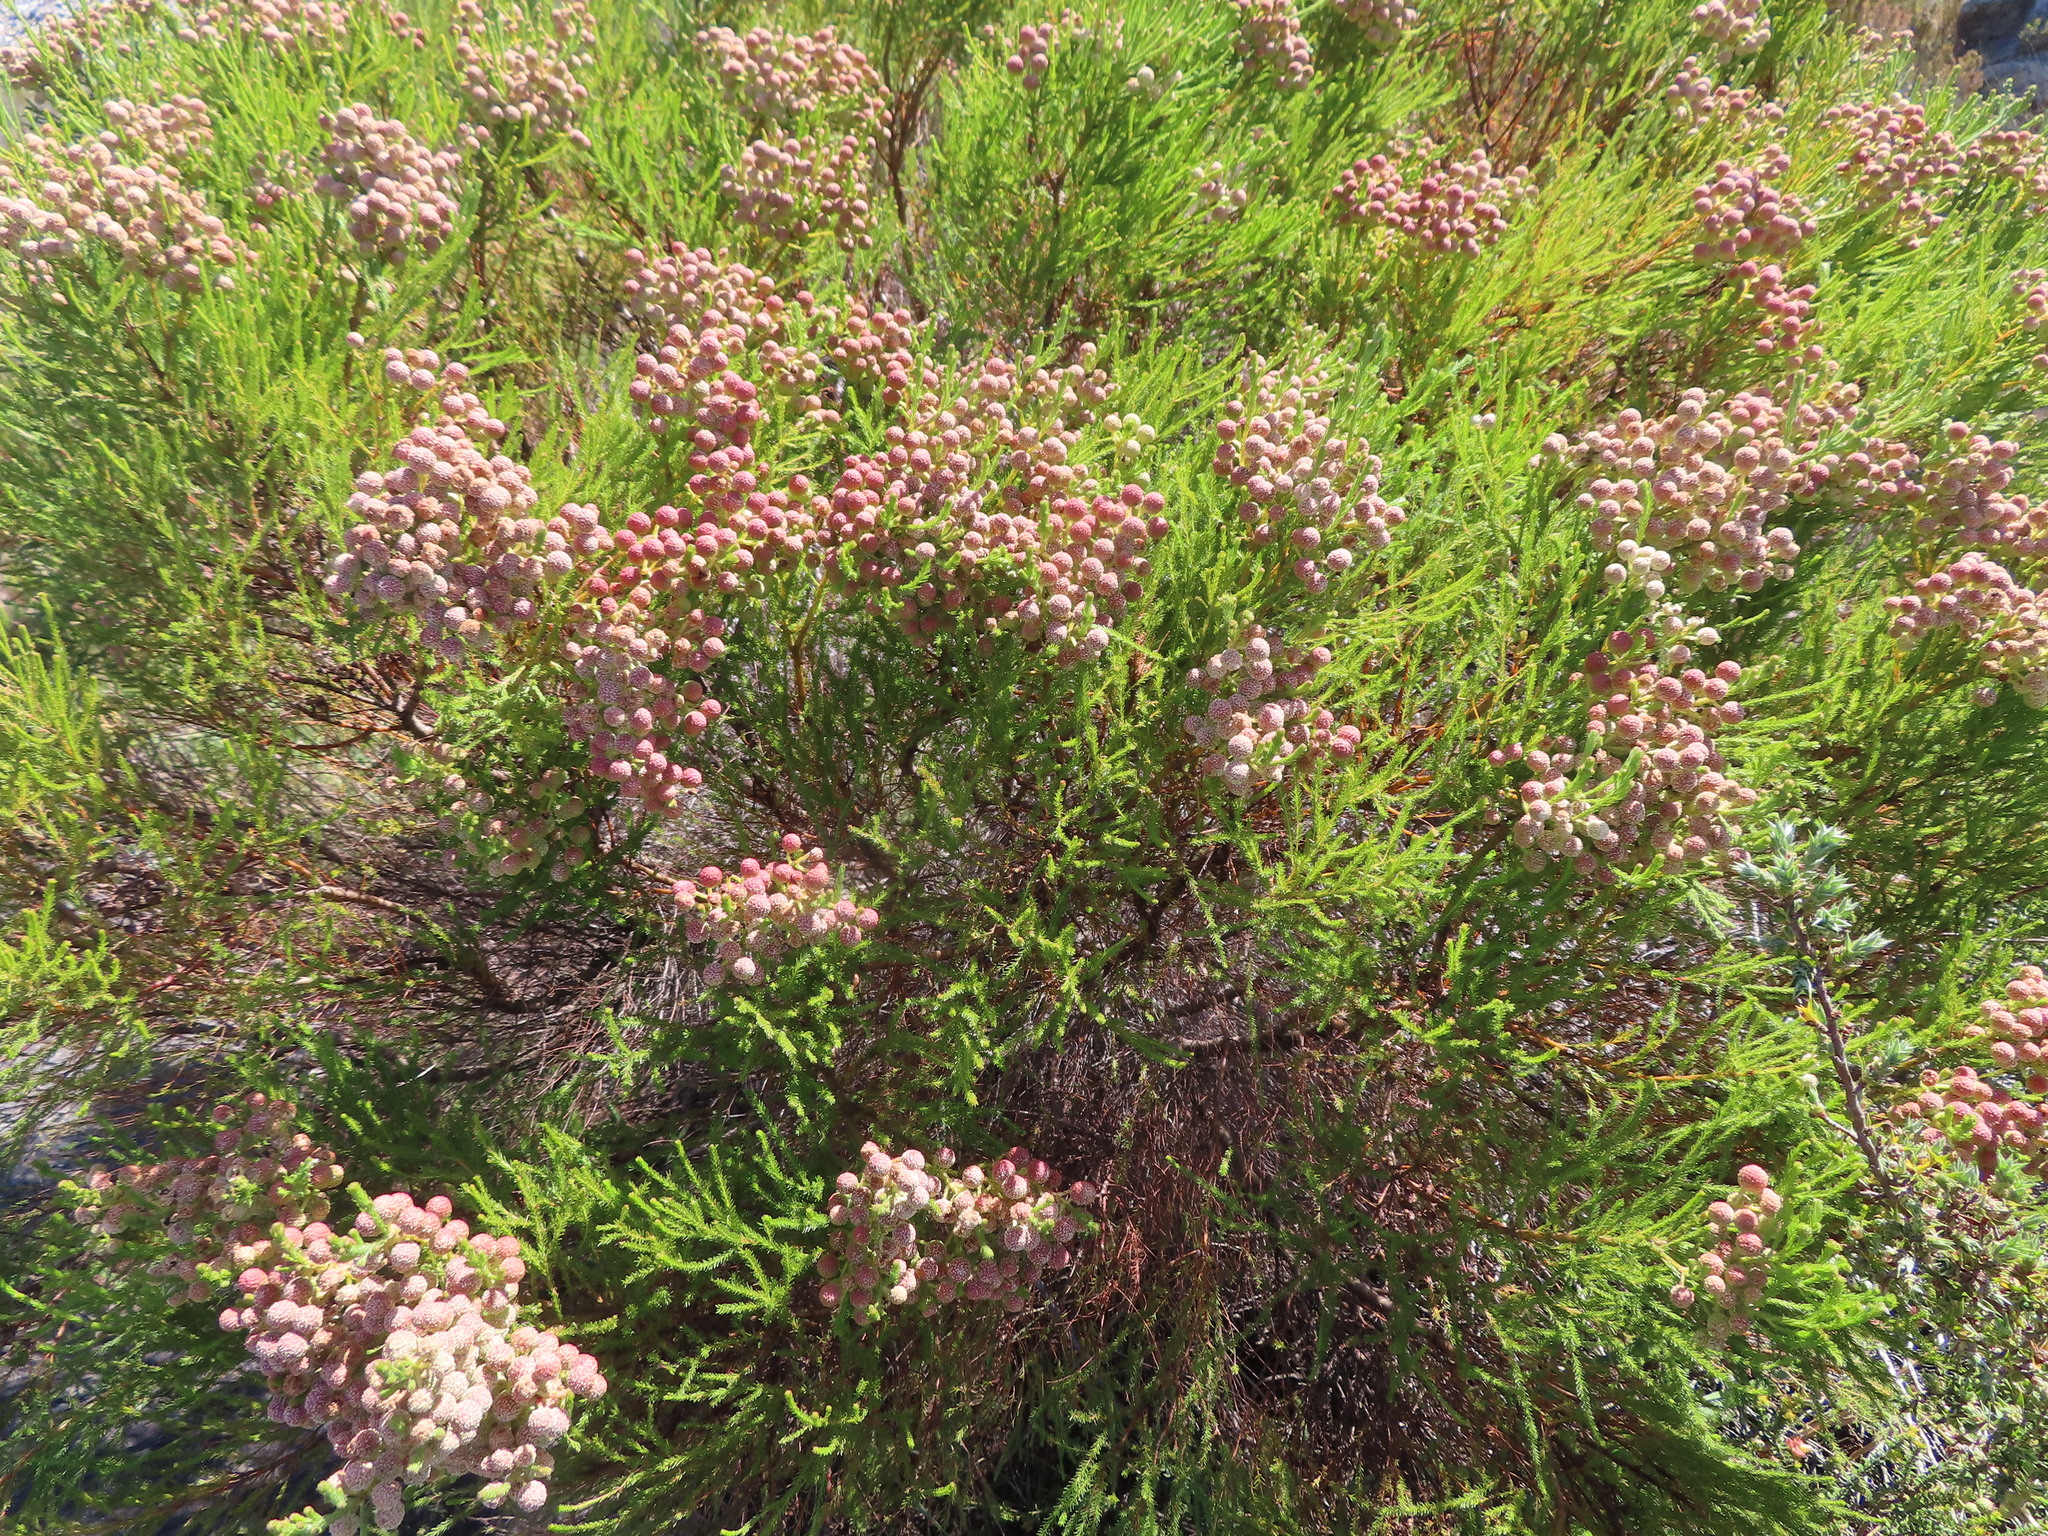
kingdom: Plantae
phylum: Tracheophyta
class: Magnoliopsida
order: Bruniales
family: Bruniaceae
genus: Berzelia
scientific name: Berzelia lanuginosa
